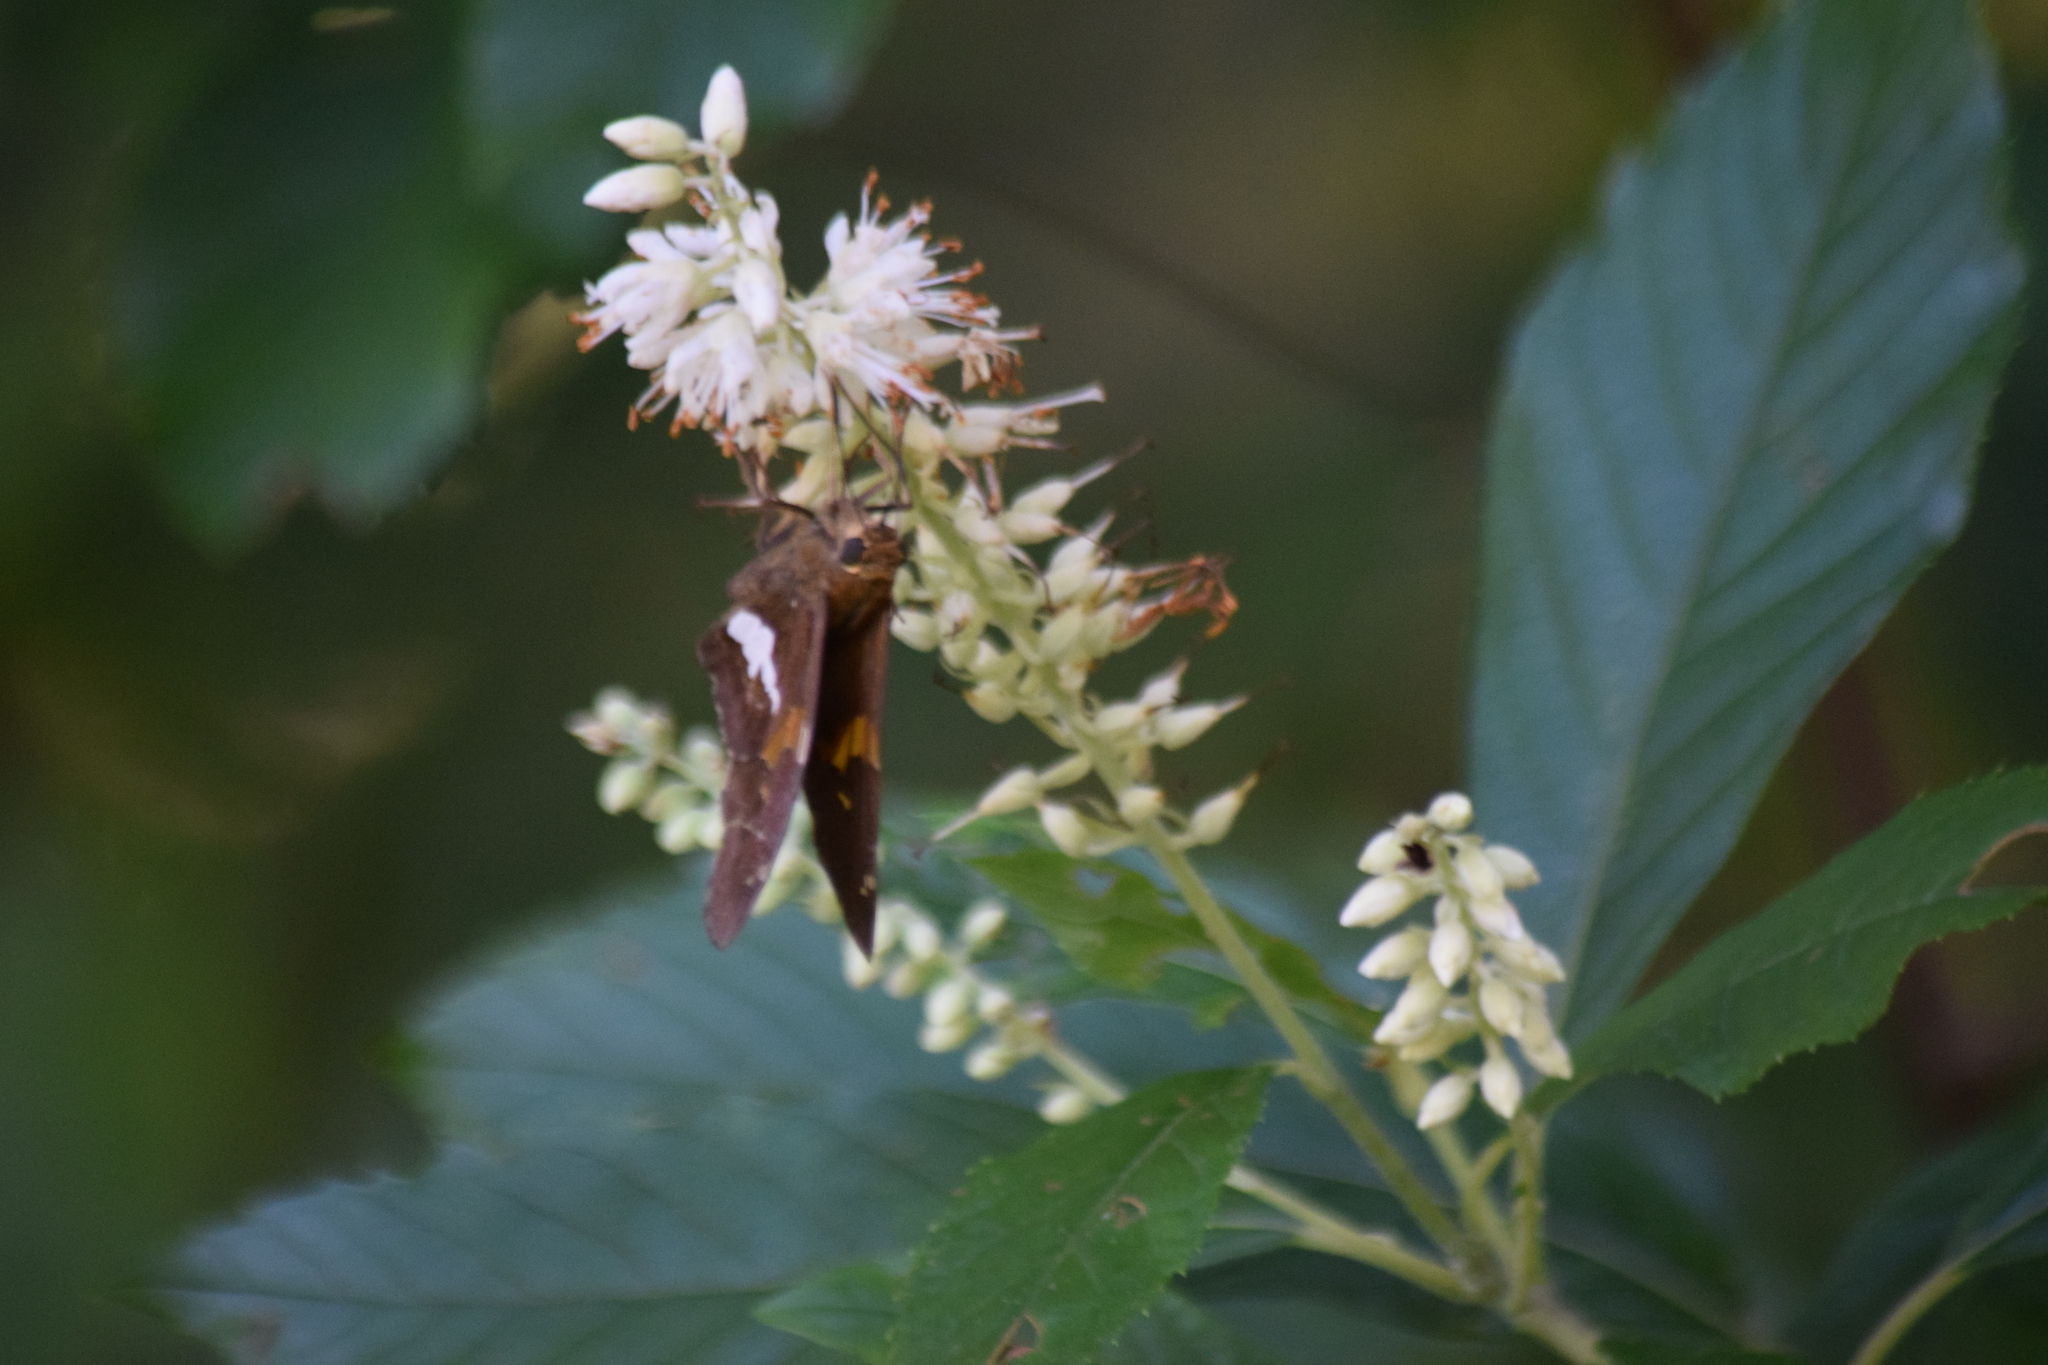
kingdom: Animalia
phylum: Arthropoda
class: Insecta
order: Lepidoptera
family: Hesperiidae
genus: Epargyreus
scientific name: Epargyreus clarus
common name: Silver-spotted skipper
